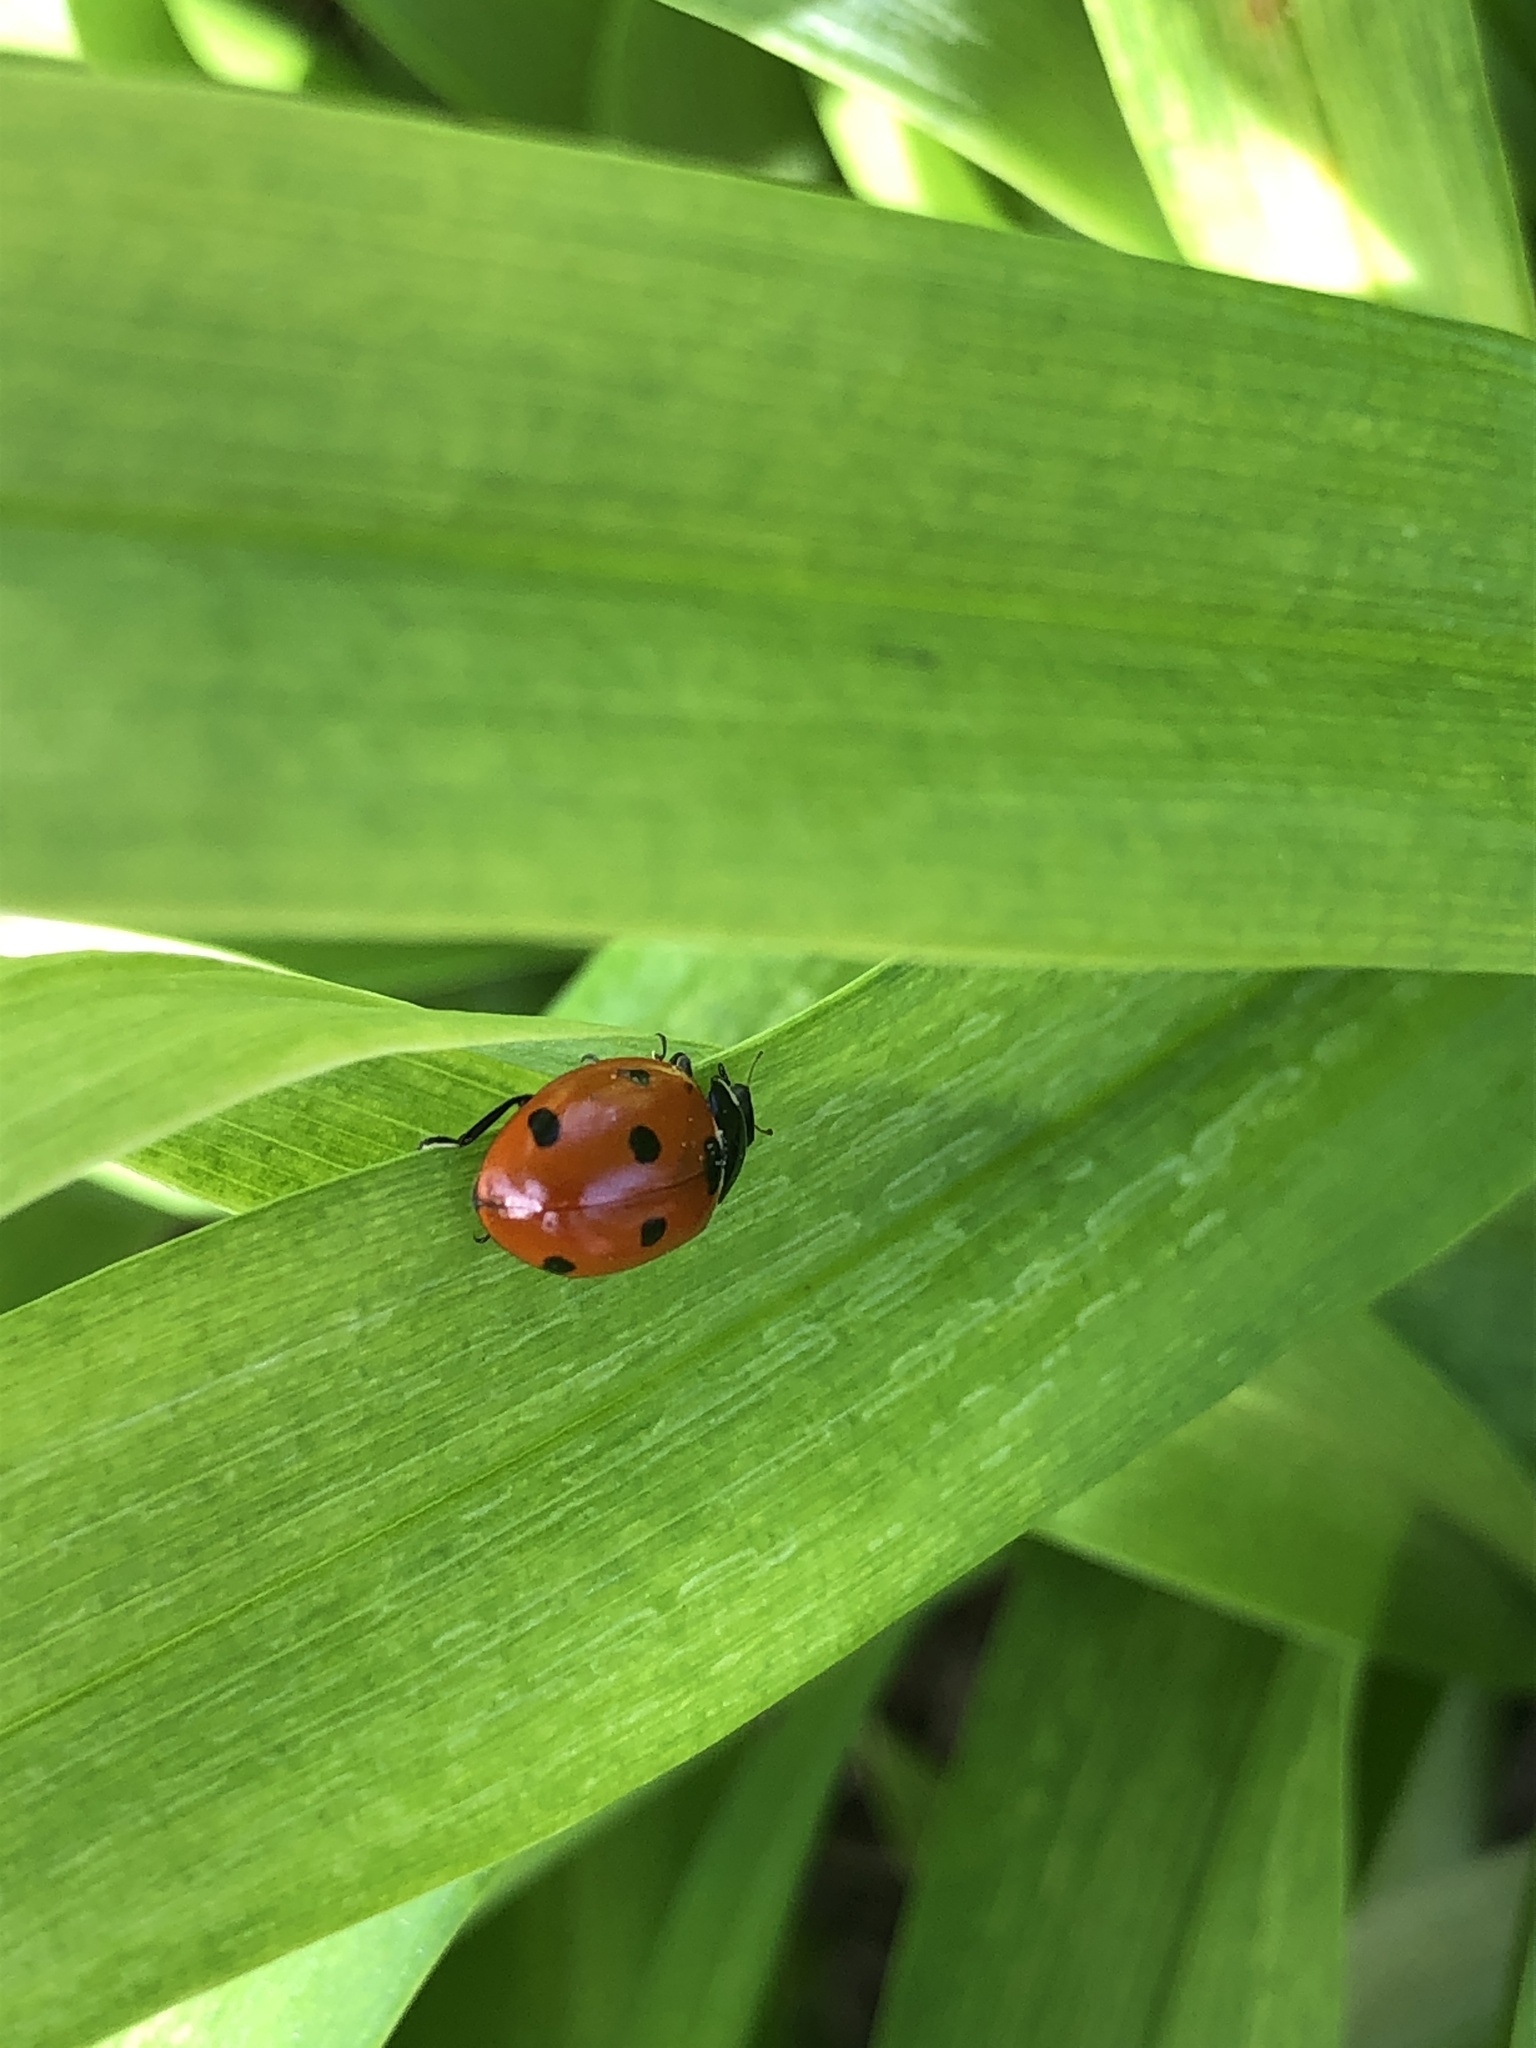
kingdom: Animalia
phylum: Arthropoda
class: Insecta
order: Coleoptera
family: Coccinellidae
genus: Coccinella
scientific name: Coccinella septempunctata
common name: Sevenspotted lady beetle
